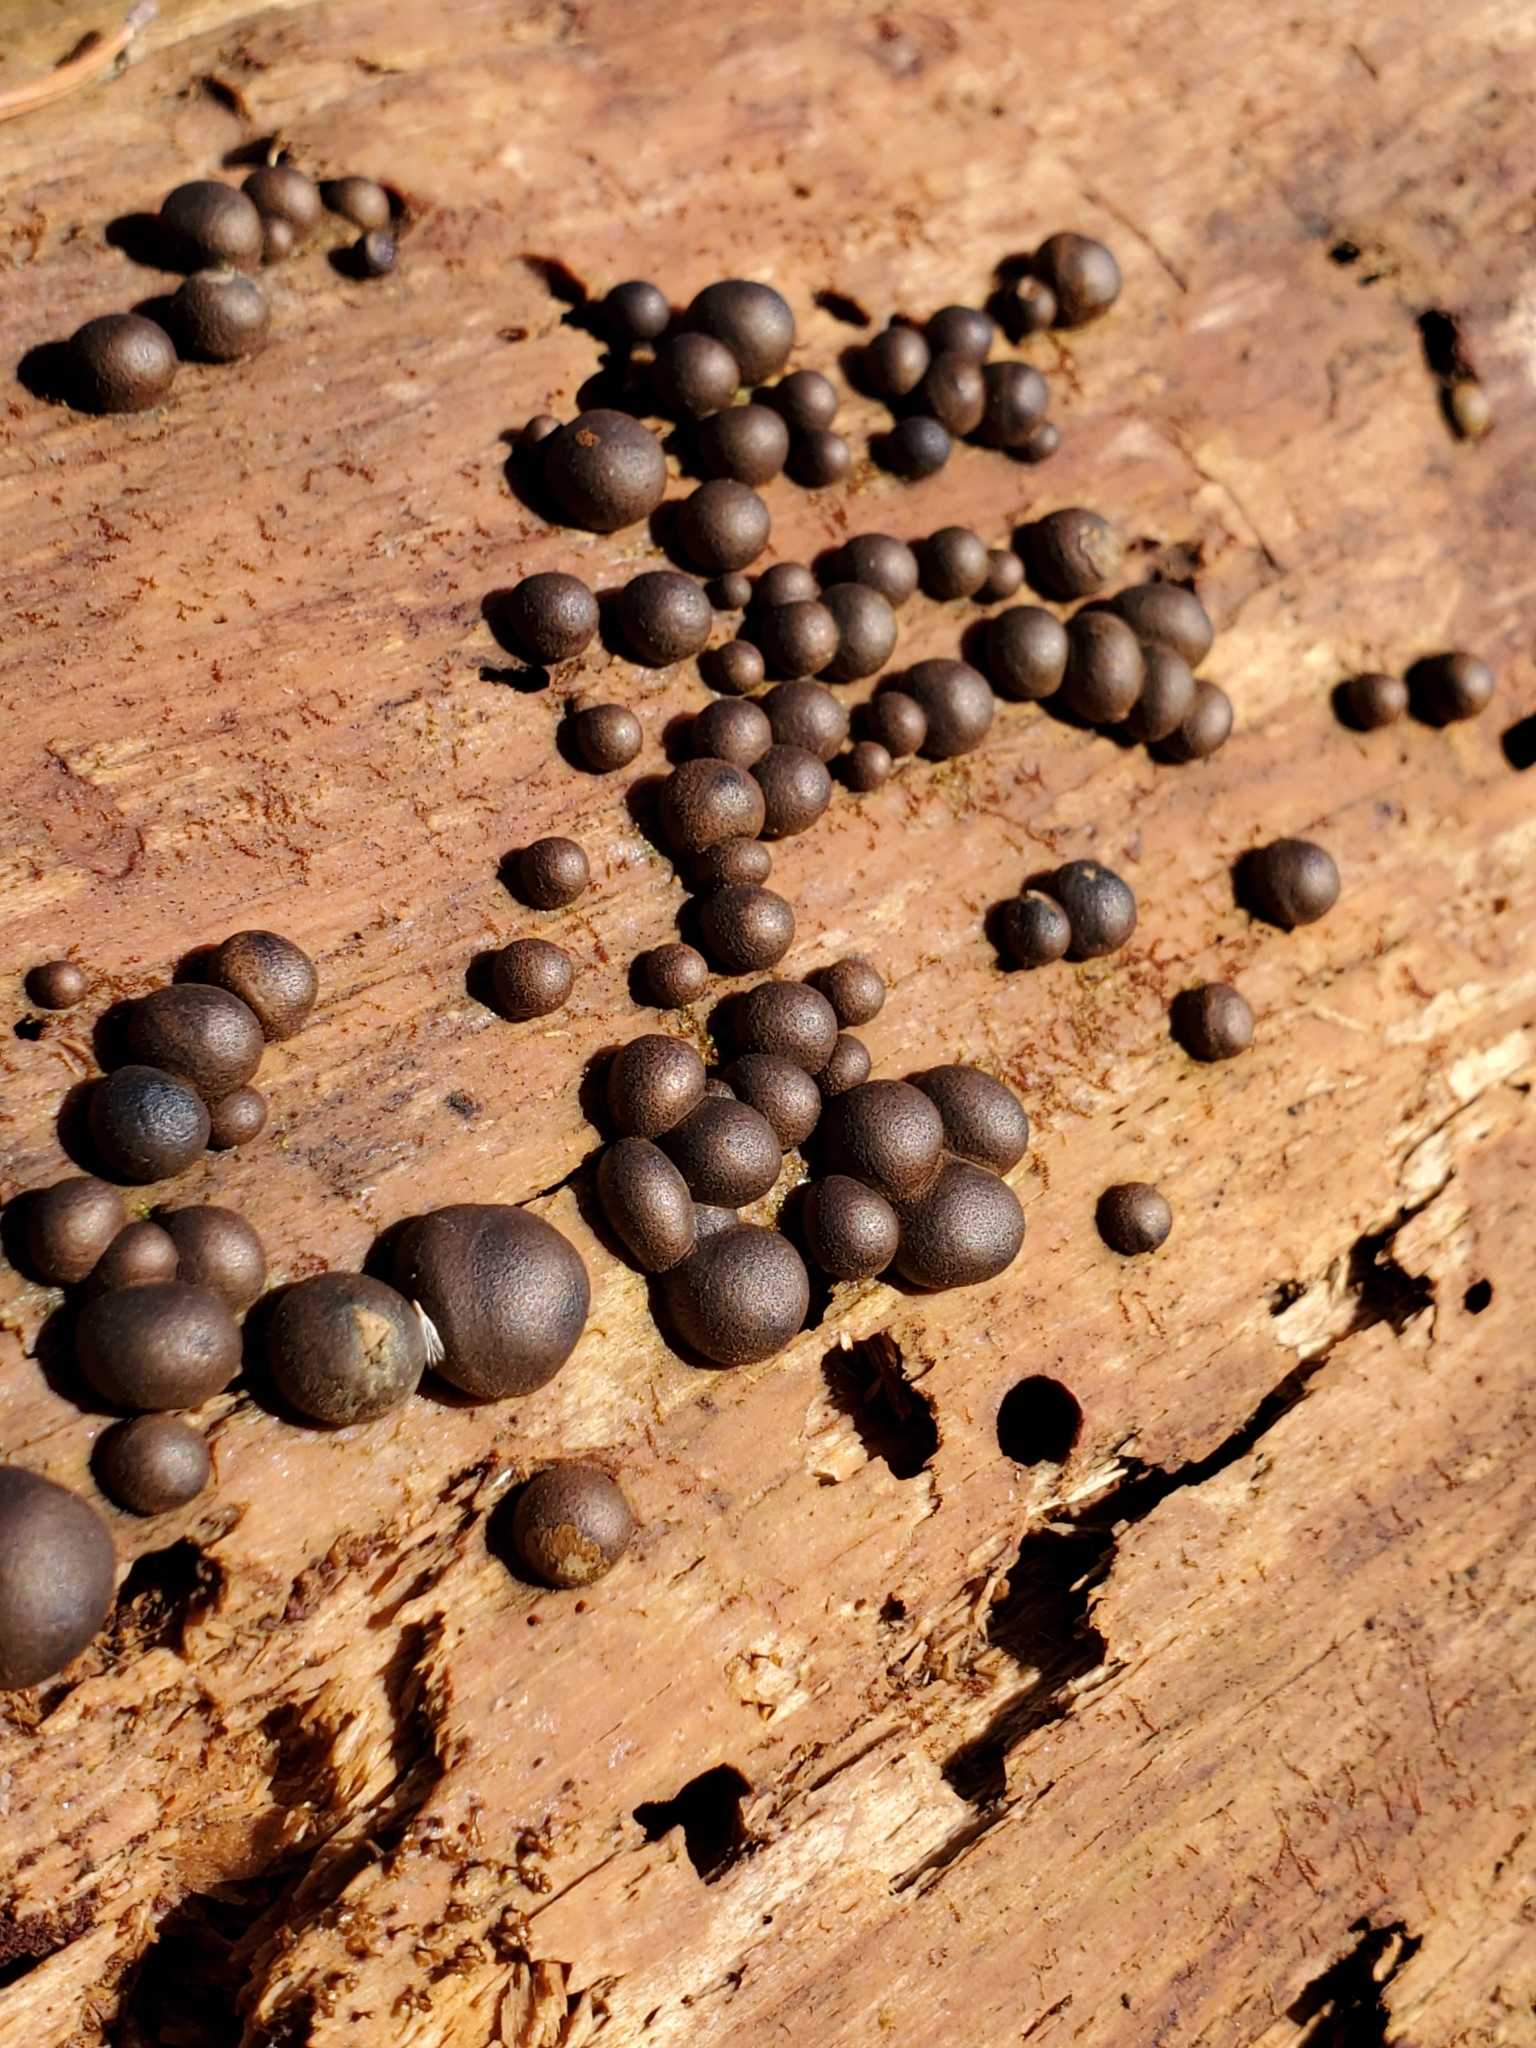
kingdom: Protozoa
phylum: Mycetozoa
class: Myxomycetes
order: Cribrariales
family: Tubiferaceae
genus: Lycogala
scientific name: Lycogala epidendrum
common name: Wolf's milk
